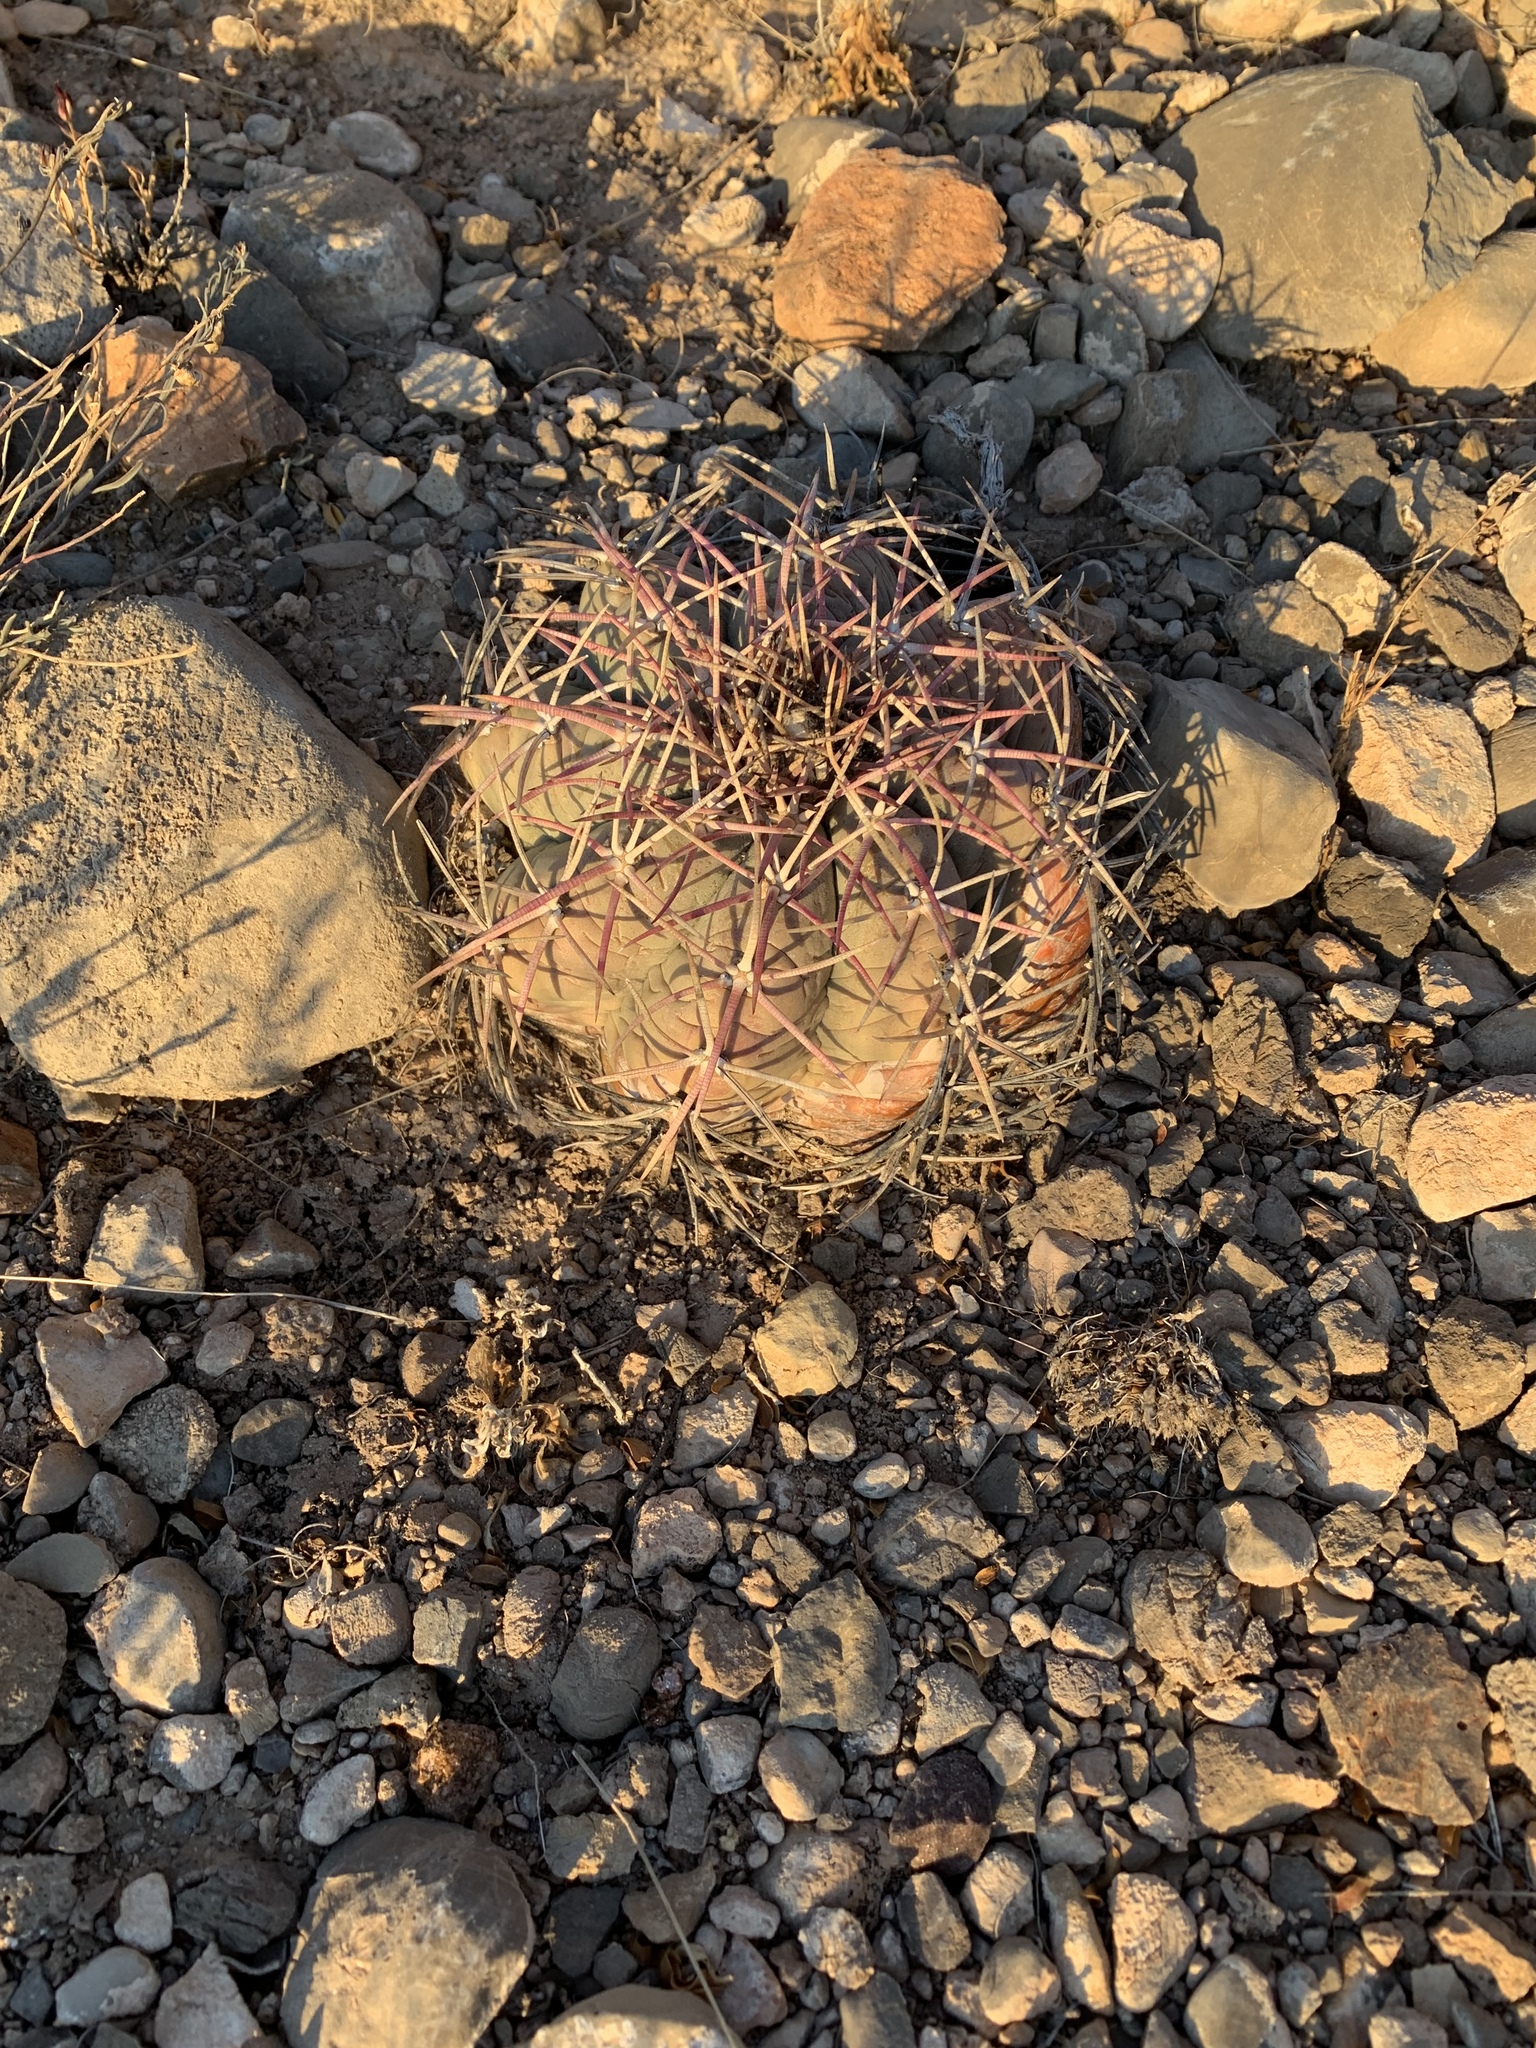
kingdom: Plantae
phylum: Tracheophyta
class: Magnoliopsida
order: Caryophyllales
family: Cactaceae
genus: Echinocactus
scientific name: Echinocactus horizonthalonius
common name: Devilshead
